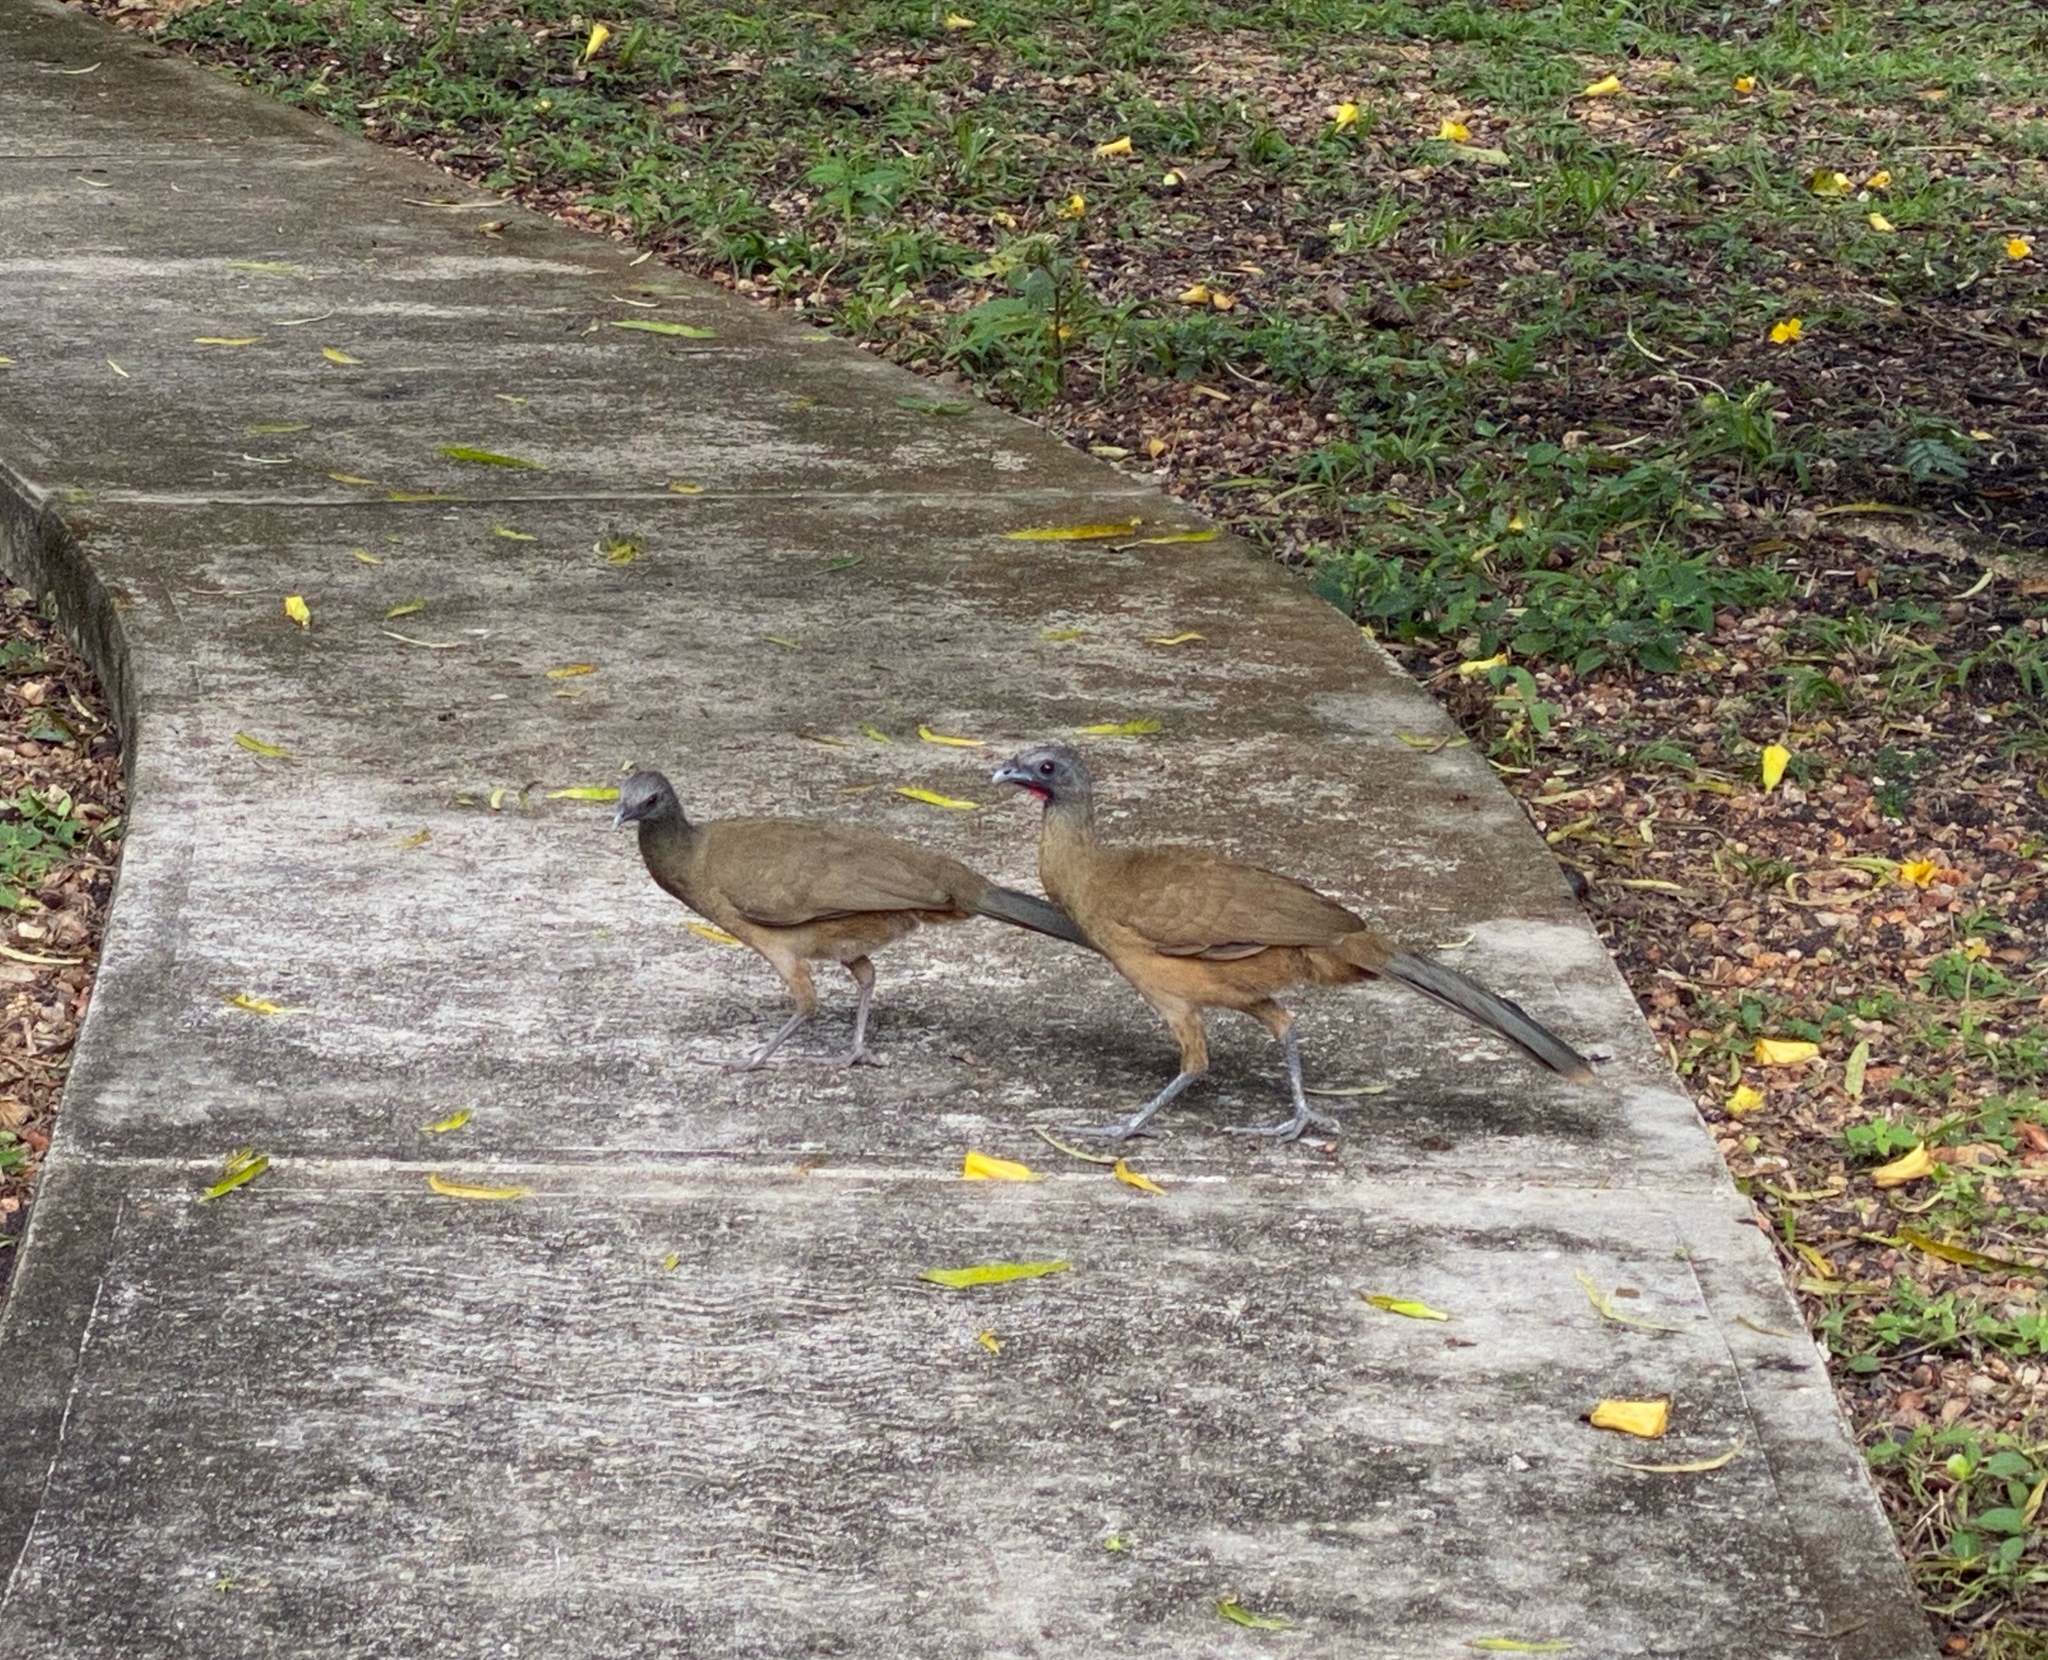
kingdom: Animalia
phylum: Chordata
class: Aves
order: Galliformes
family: Cracidae
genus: Ortalis
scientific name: Ortalis vetula
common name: Plain chachalaca
